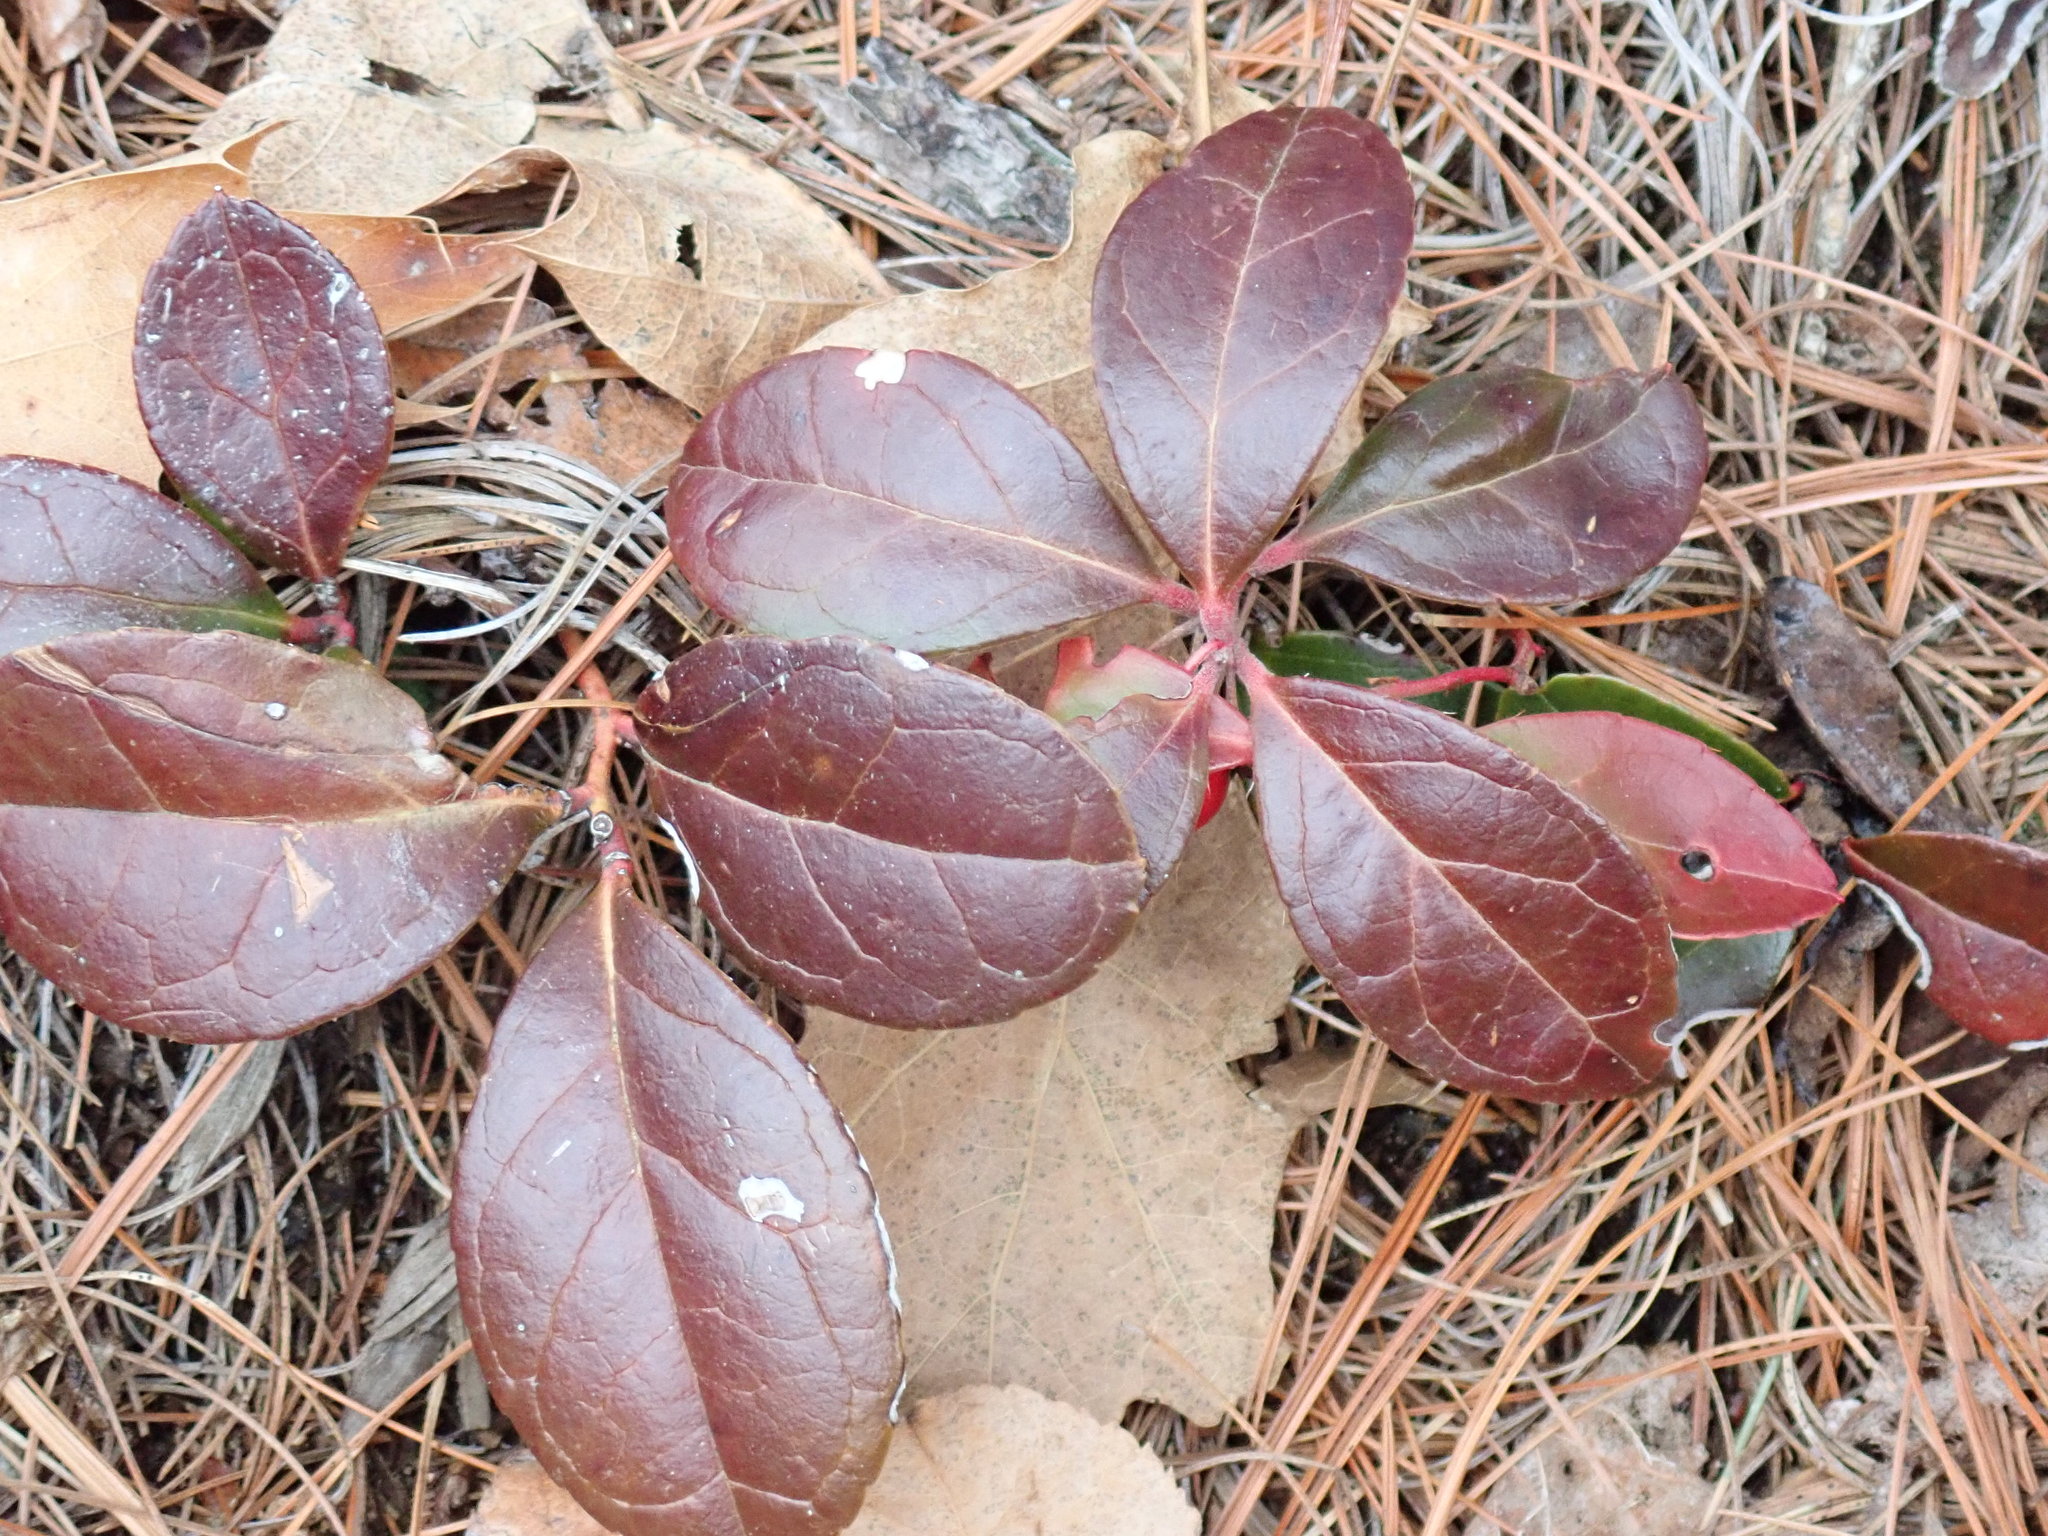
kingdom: Plantae
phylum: Tracheophyta
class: Magnoliopsida
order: Ericales
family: Ericaceae
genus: Gaultheria
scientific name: Gaultheria procumbens
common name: Checkerberry
